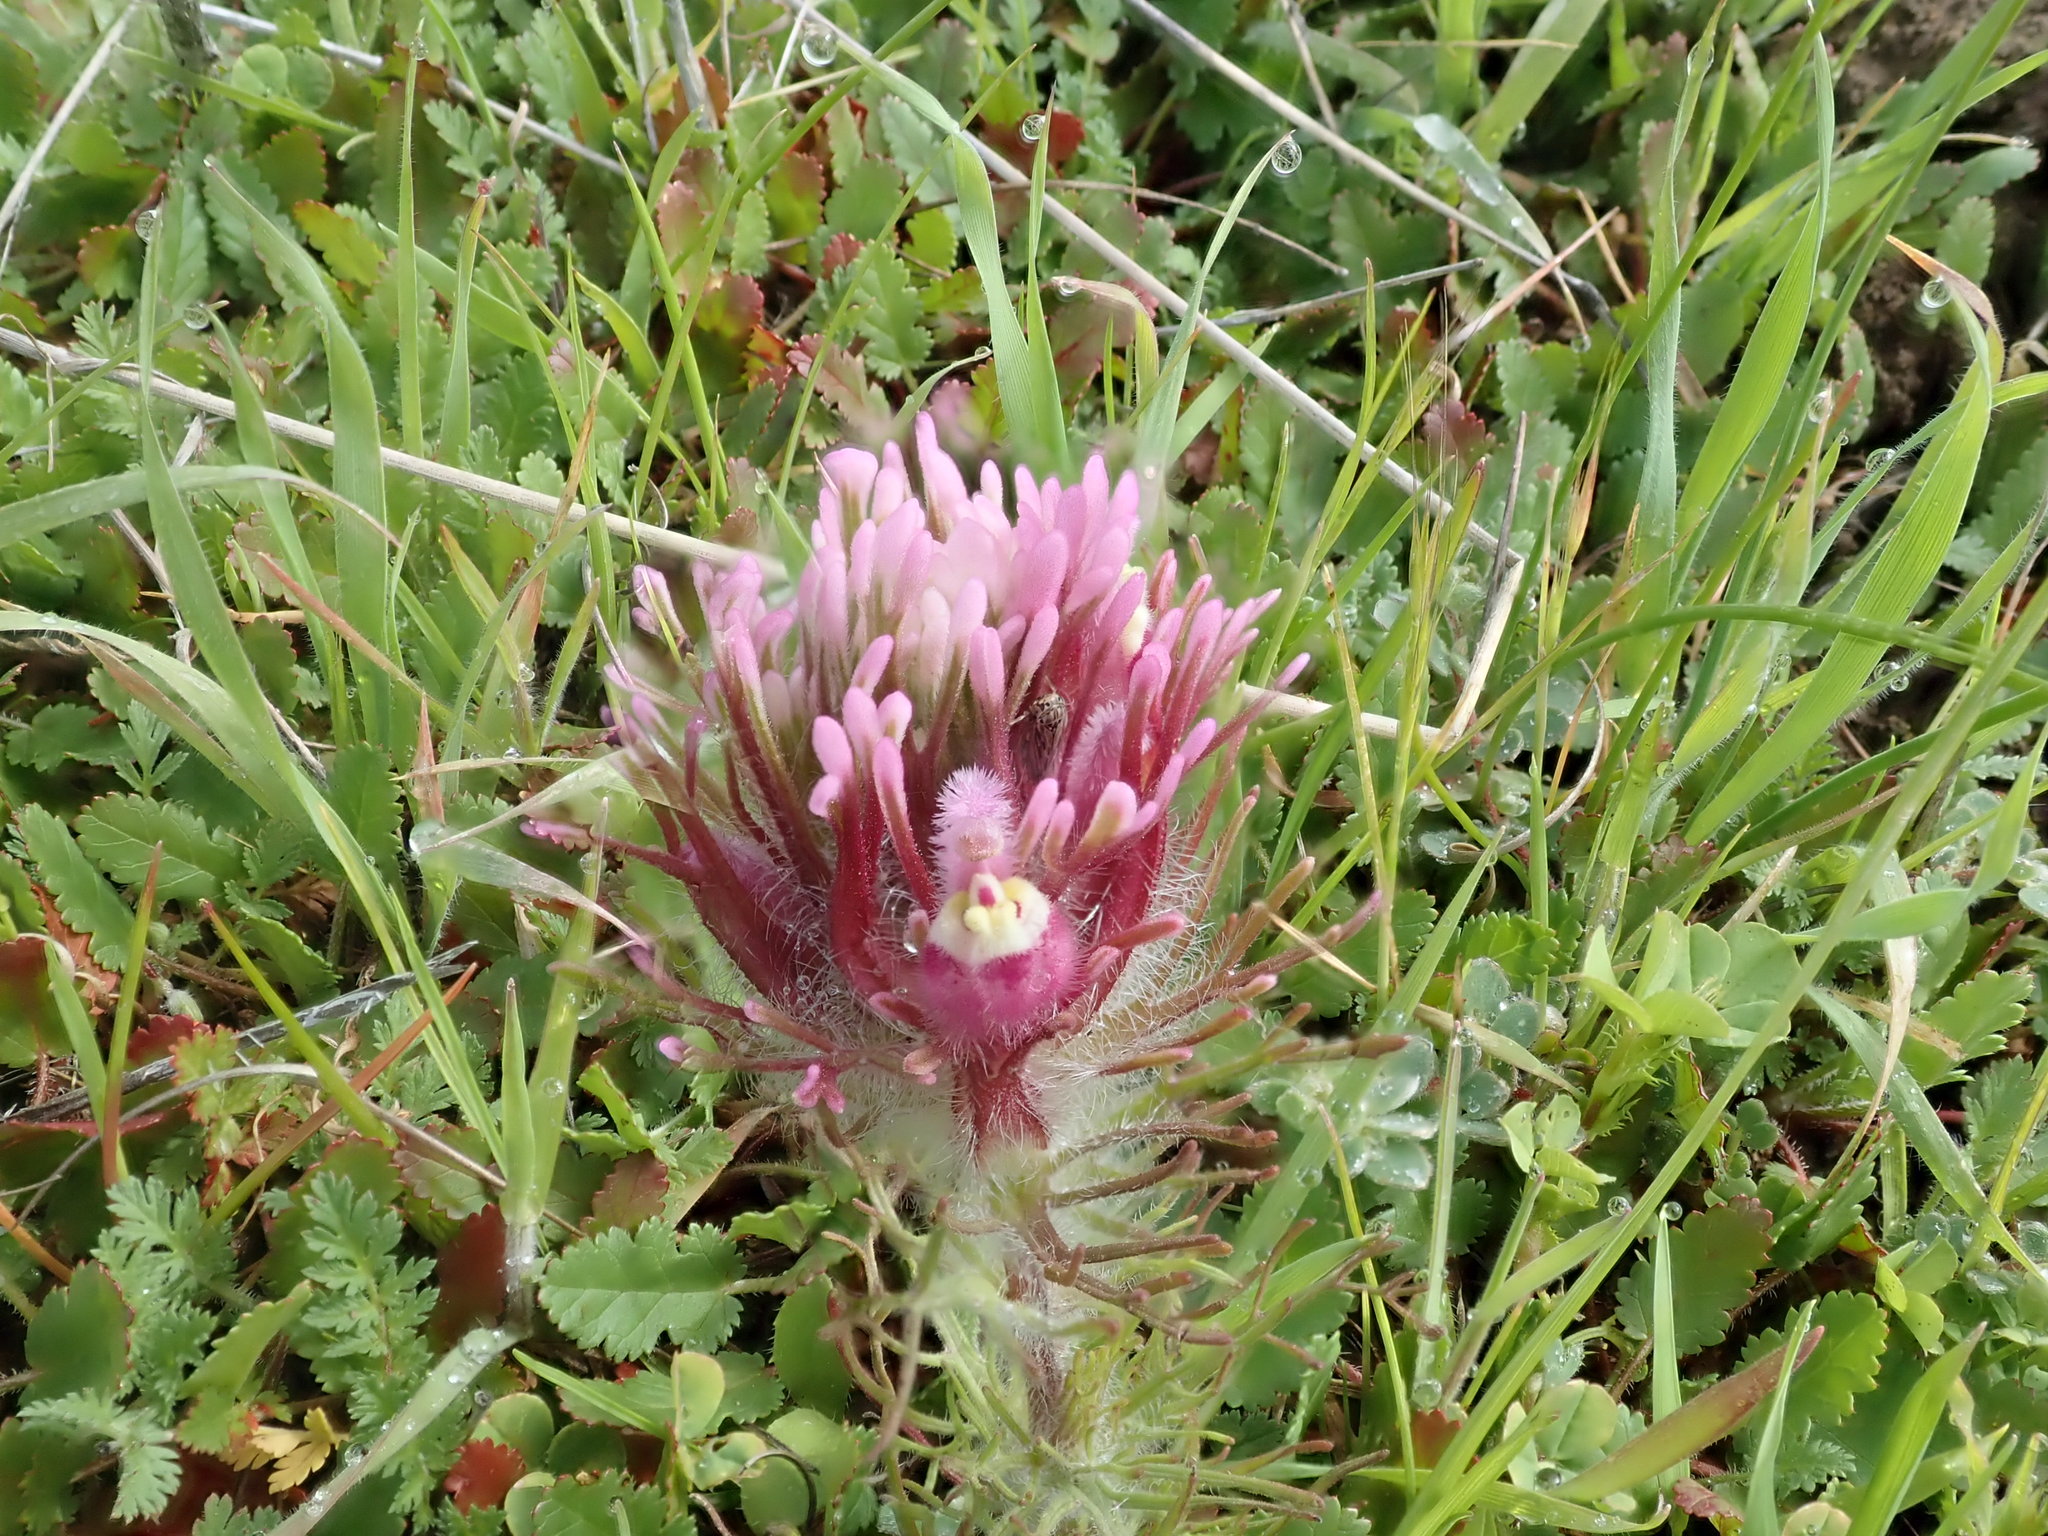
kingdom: Plantae
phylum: Tracheophyta
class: Magnoliopsida
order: Lamiales
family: Orobanchaceae
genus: Castilleja
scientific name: Castilleja exserta
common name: Purple owl-clover
